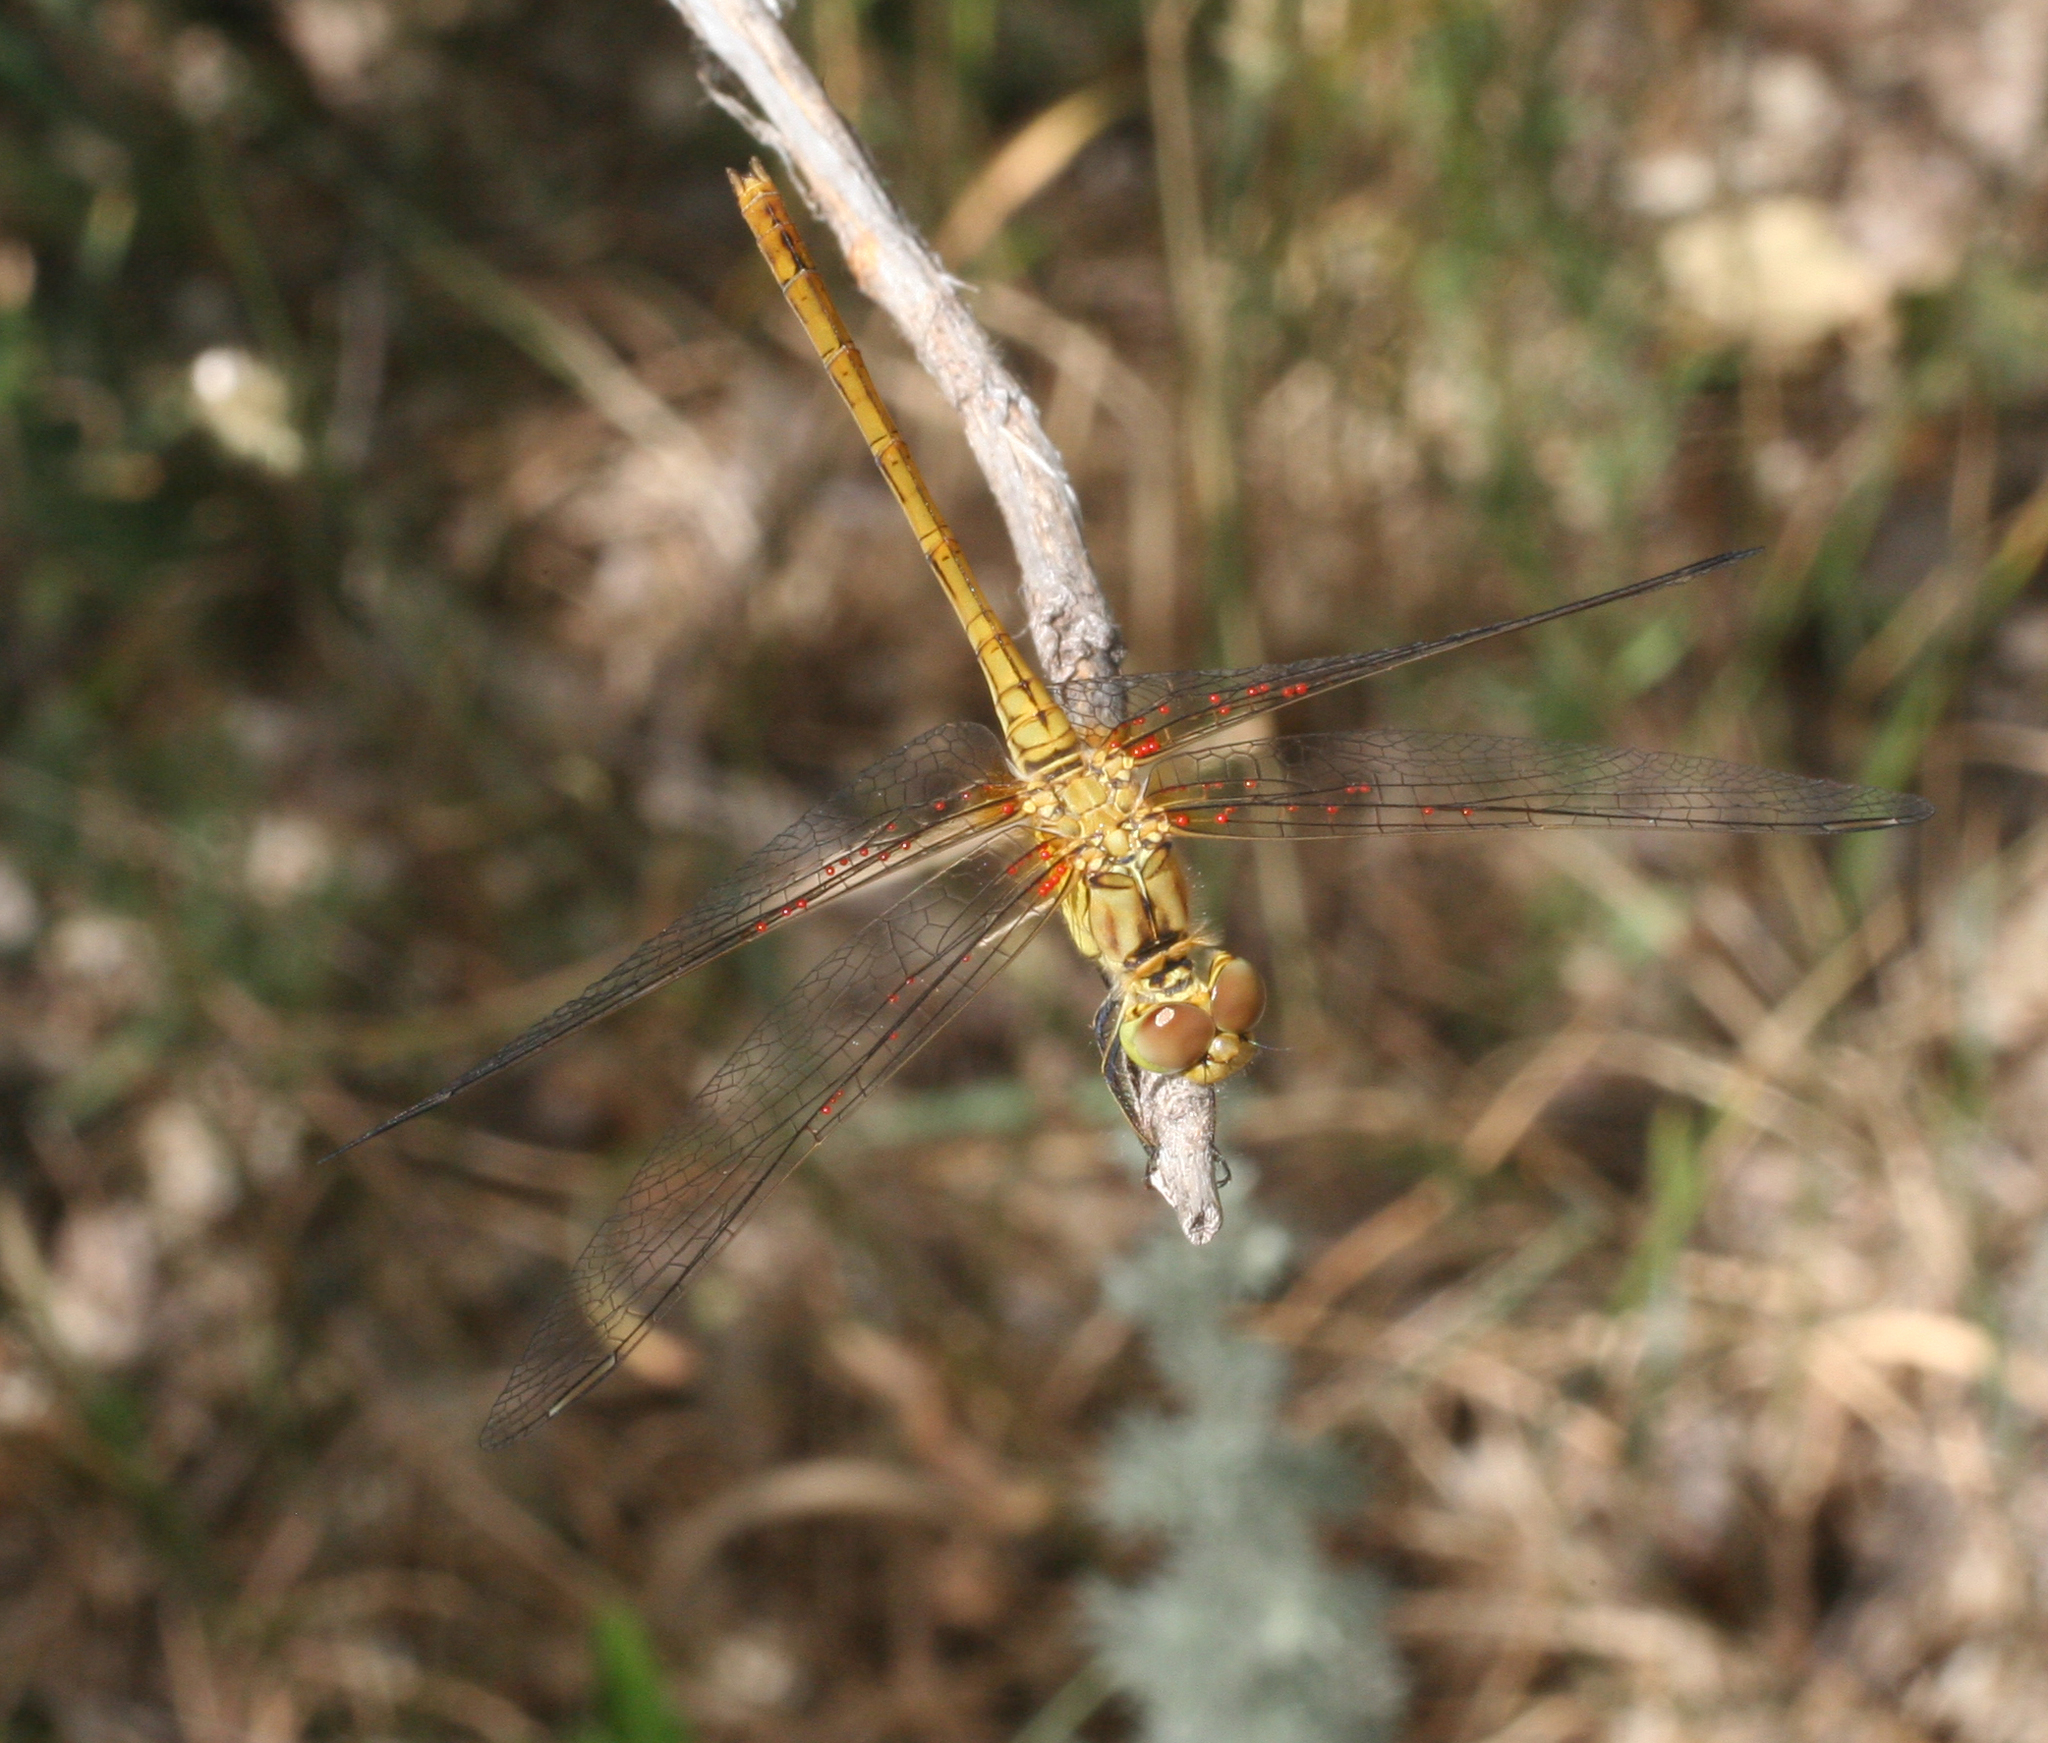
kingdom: Animalia
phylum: Arthropoda
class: Insecta
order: Odonata
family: Libellulidae
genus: Sympetrum
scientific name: Sympetrum meridionale
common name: Southern darter
